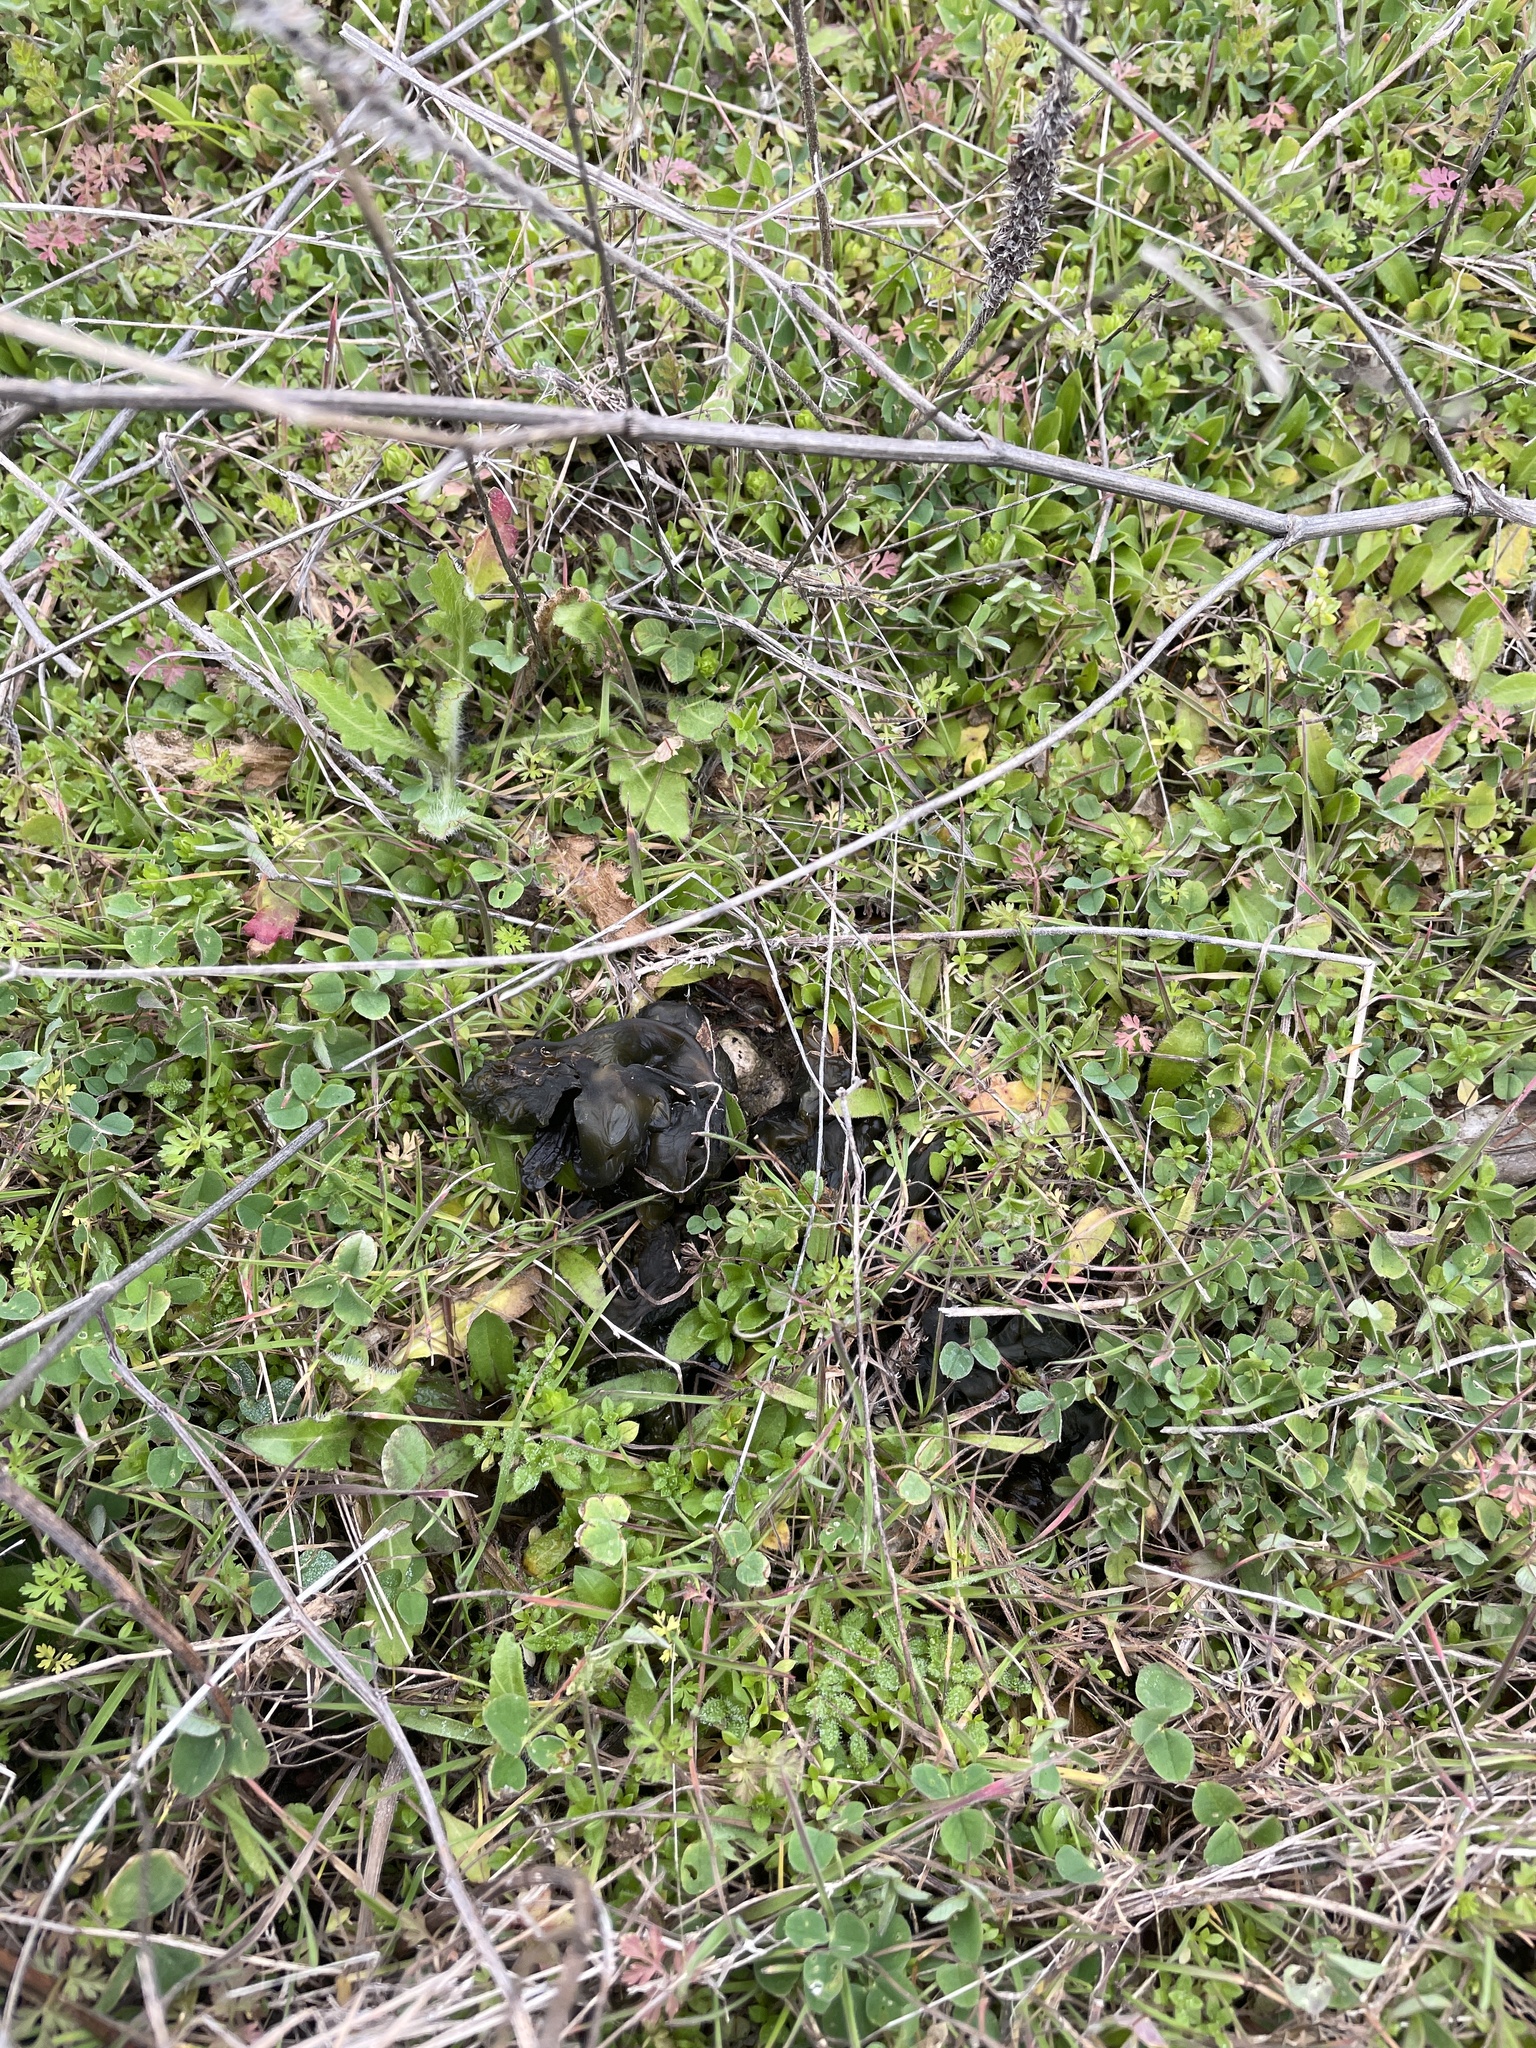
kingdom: Bacteria
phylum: Cyanobacteria
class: Cyanobacteriia
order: Cyanobacteriales
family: Nostocaceae
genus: Nostoc
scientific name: Nostoc commune
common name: Star jelly
